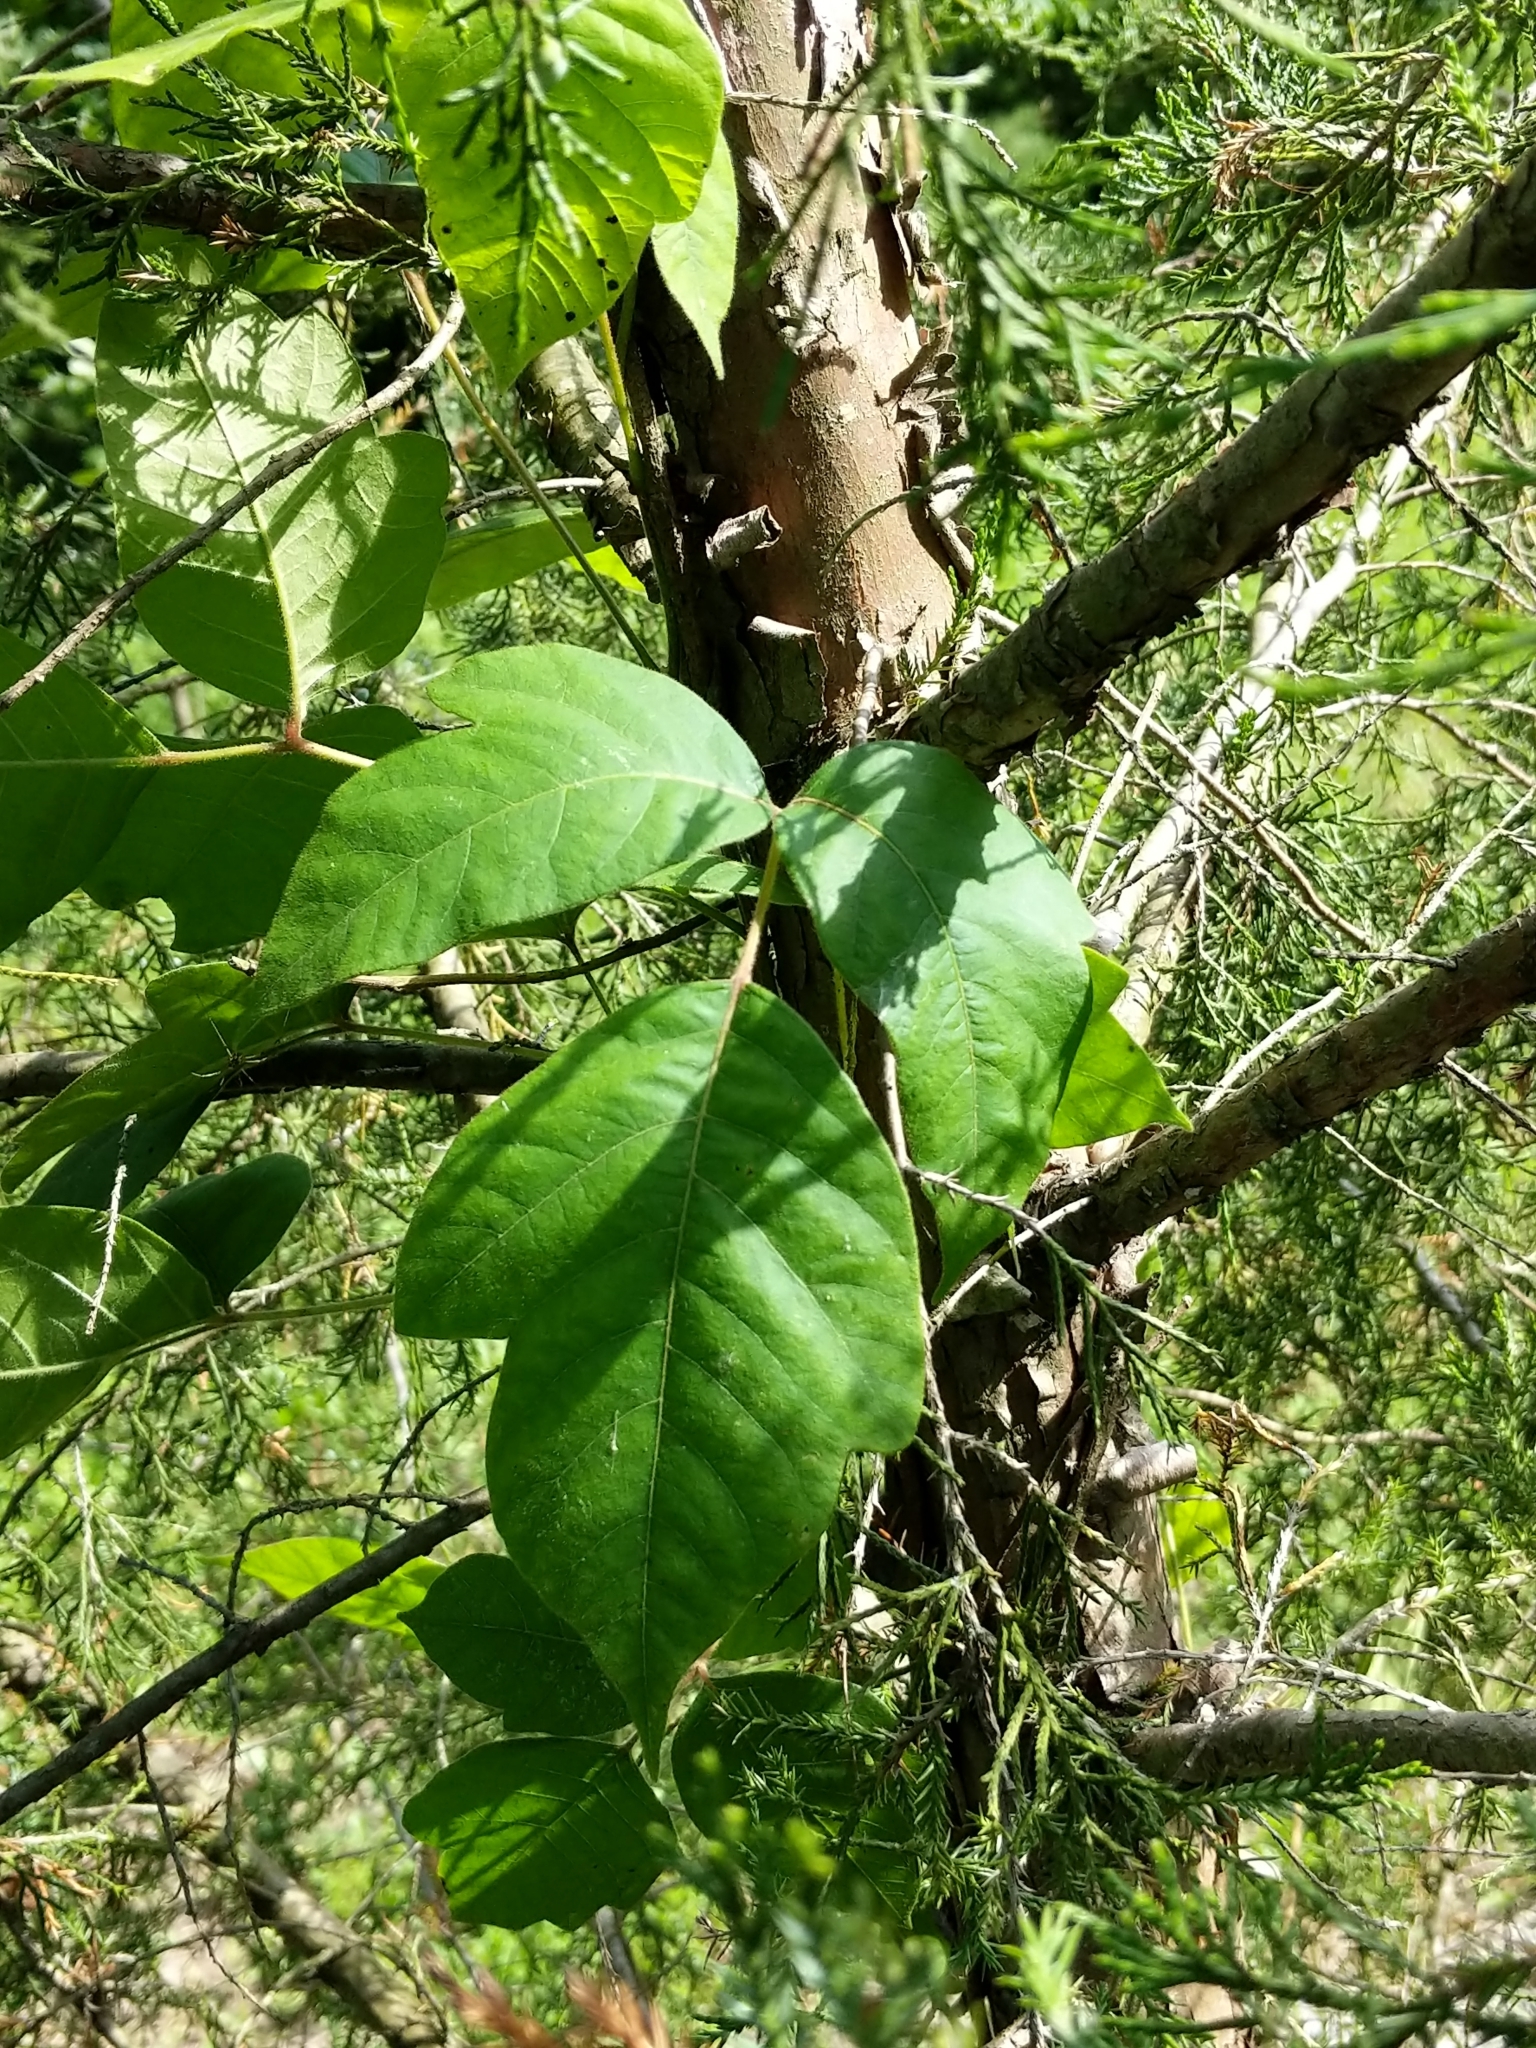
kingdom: Plantae
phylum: Tracheophyta
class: Magnoliopsida
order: Sapindales
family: Anacardiaceae
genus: Toxicodendron
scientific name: Toxicodendron radicans
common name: Poison ivy
